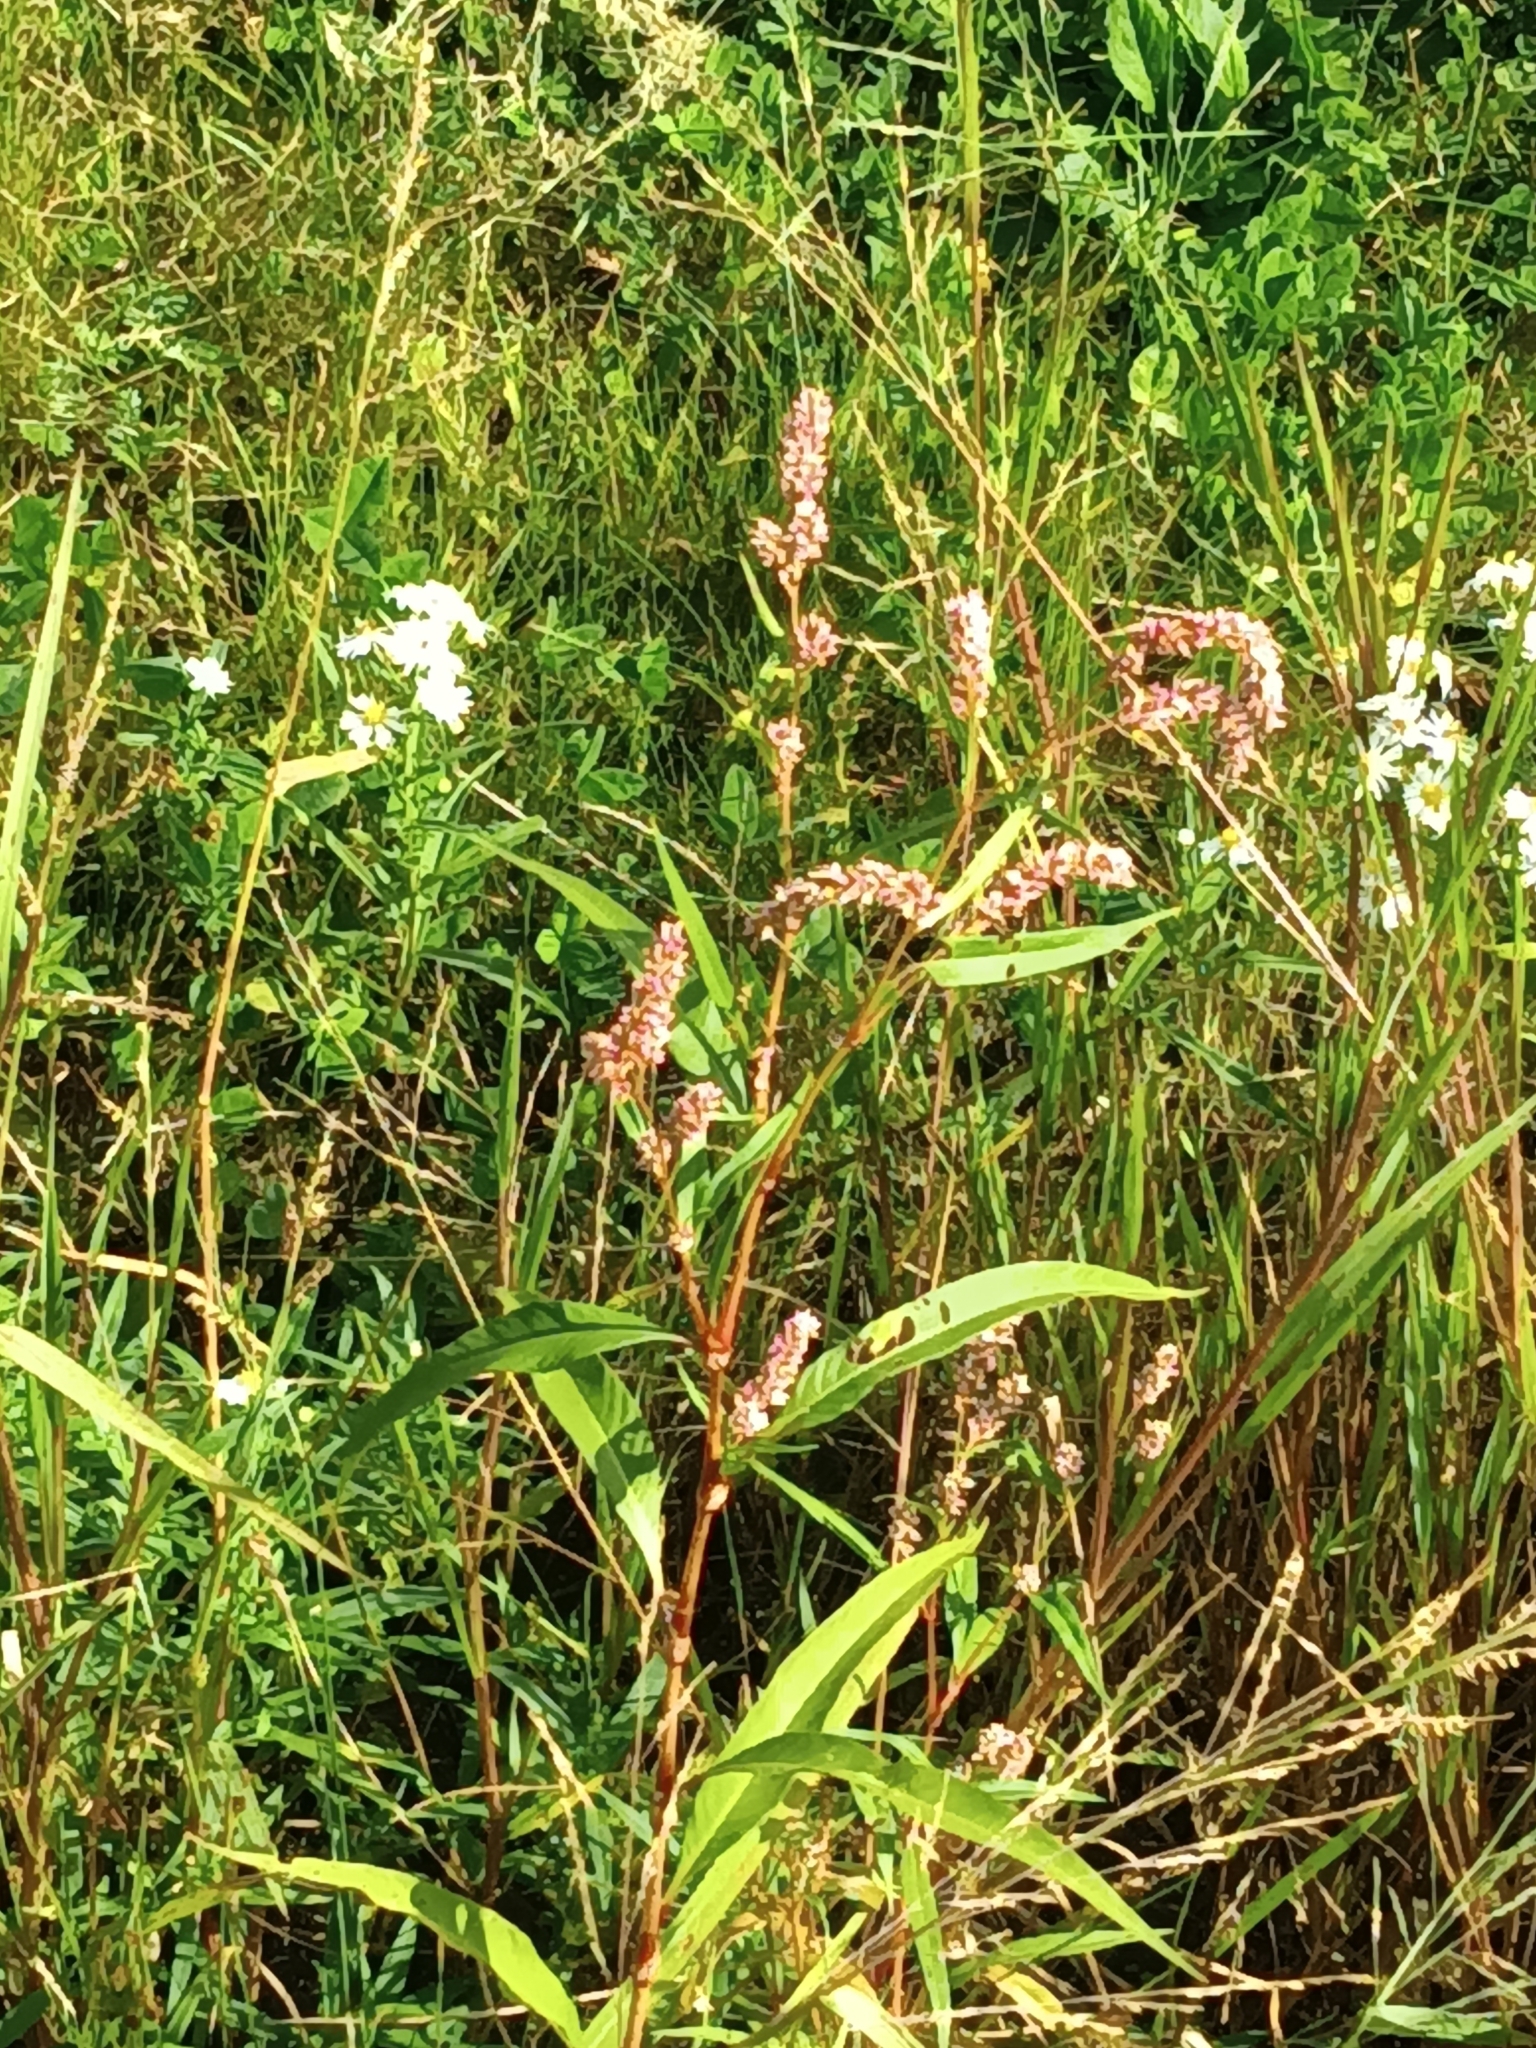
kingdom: Plantae
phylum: Tracheophyta
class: Magnoliopsida
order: Caryophyllales
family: Polygonaceae
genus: Persicaria
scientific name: Persicaria lapathifolia
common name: Curlytop knotweed
